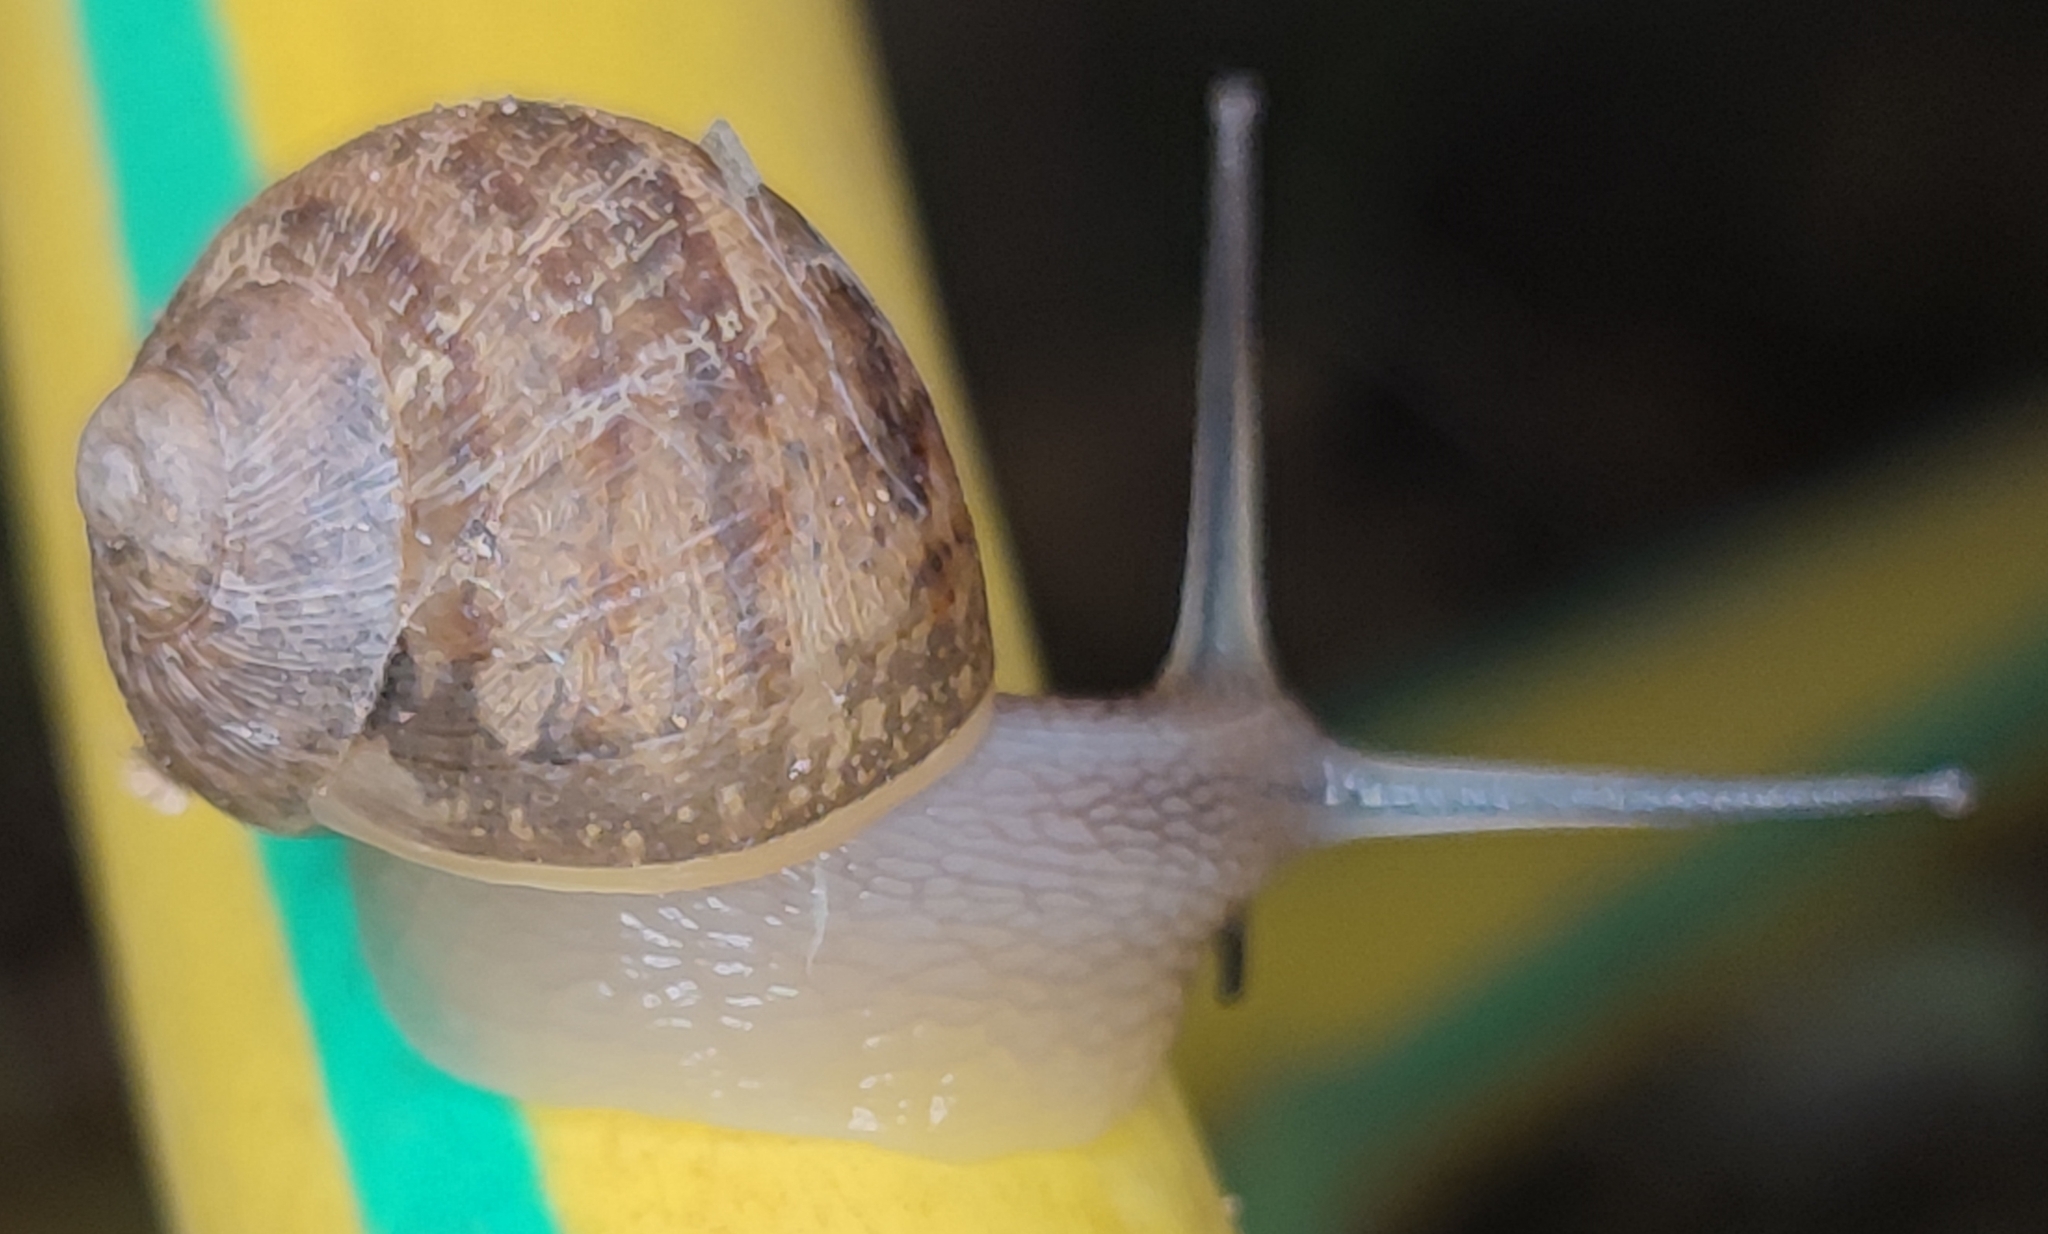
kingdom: Animalia
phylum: Mollusca
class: Gastropoda
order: Stylommatophora
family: Helicidae
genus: Cornu
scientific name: Cornu aspersum
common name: Brown garden snail
